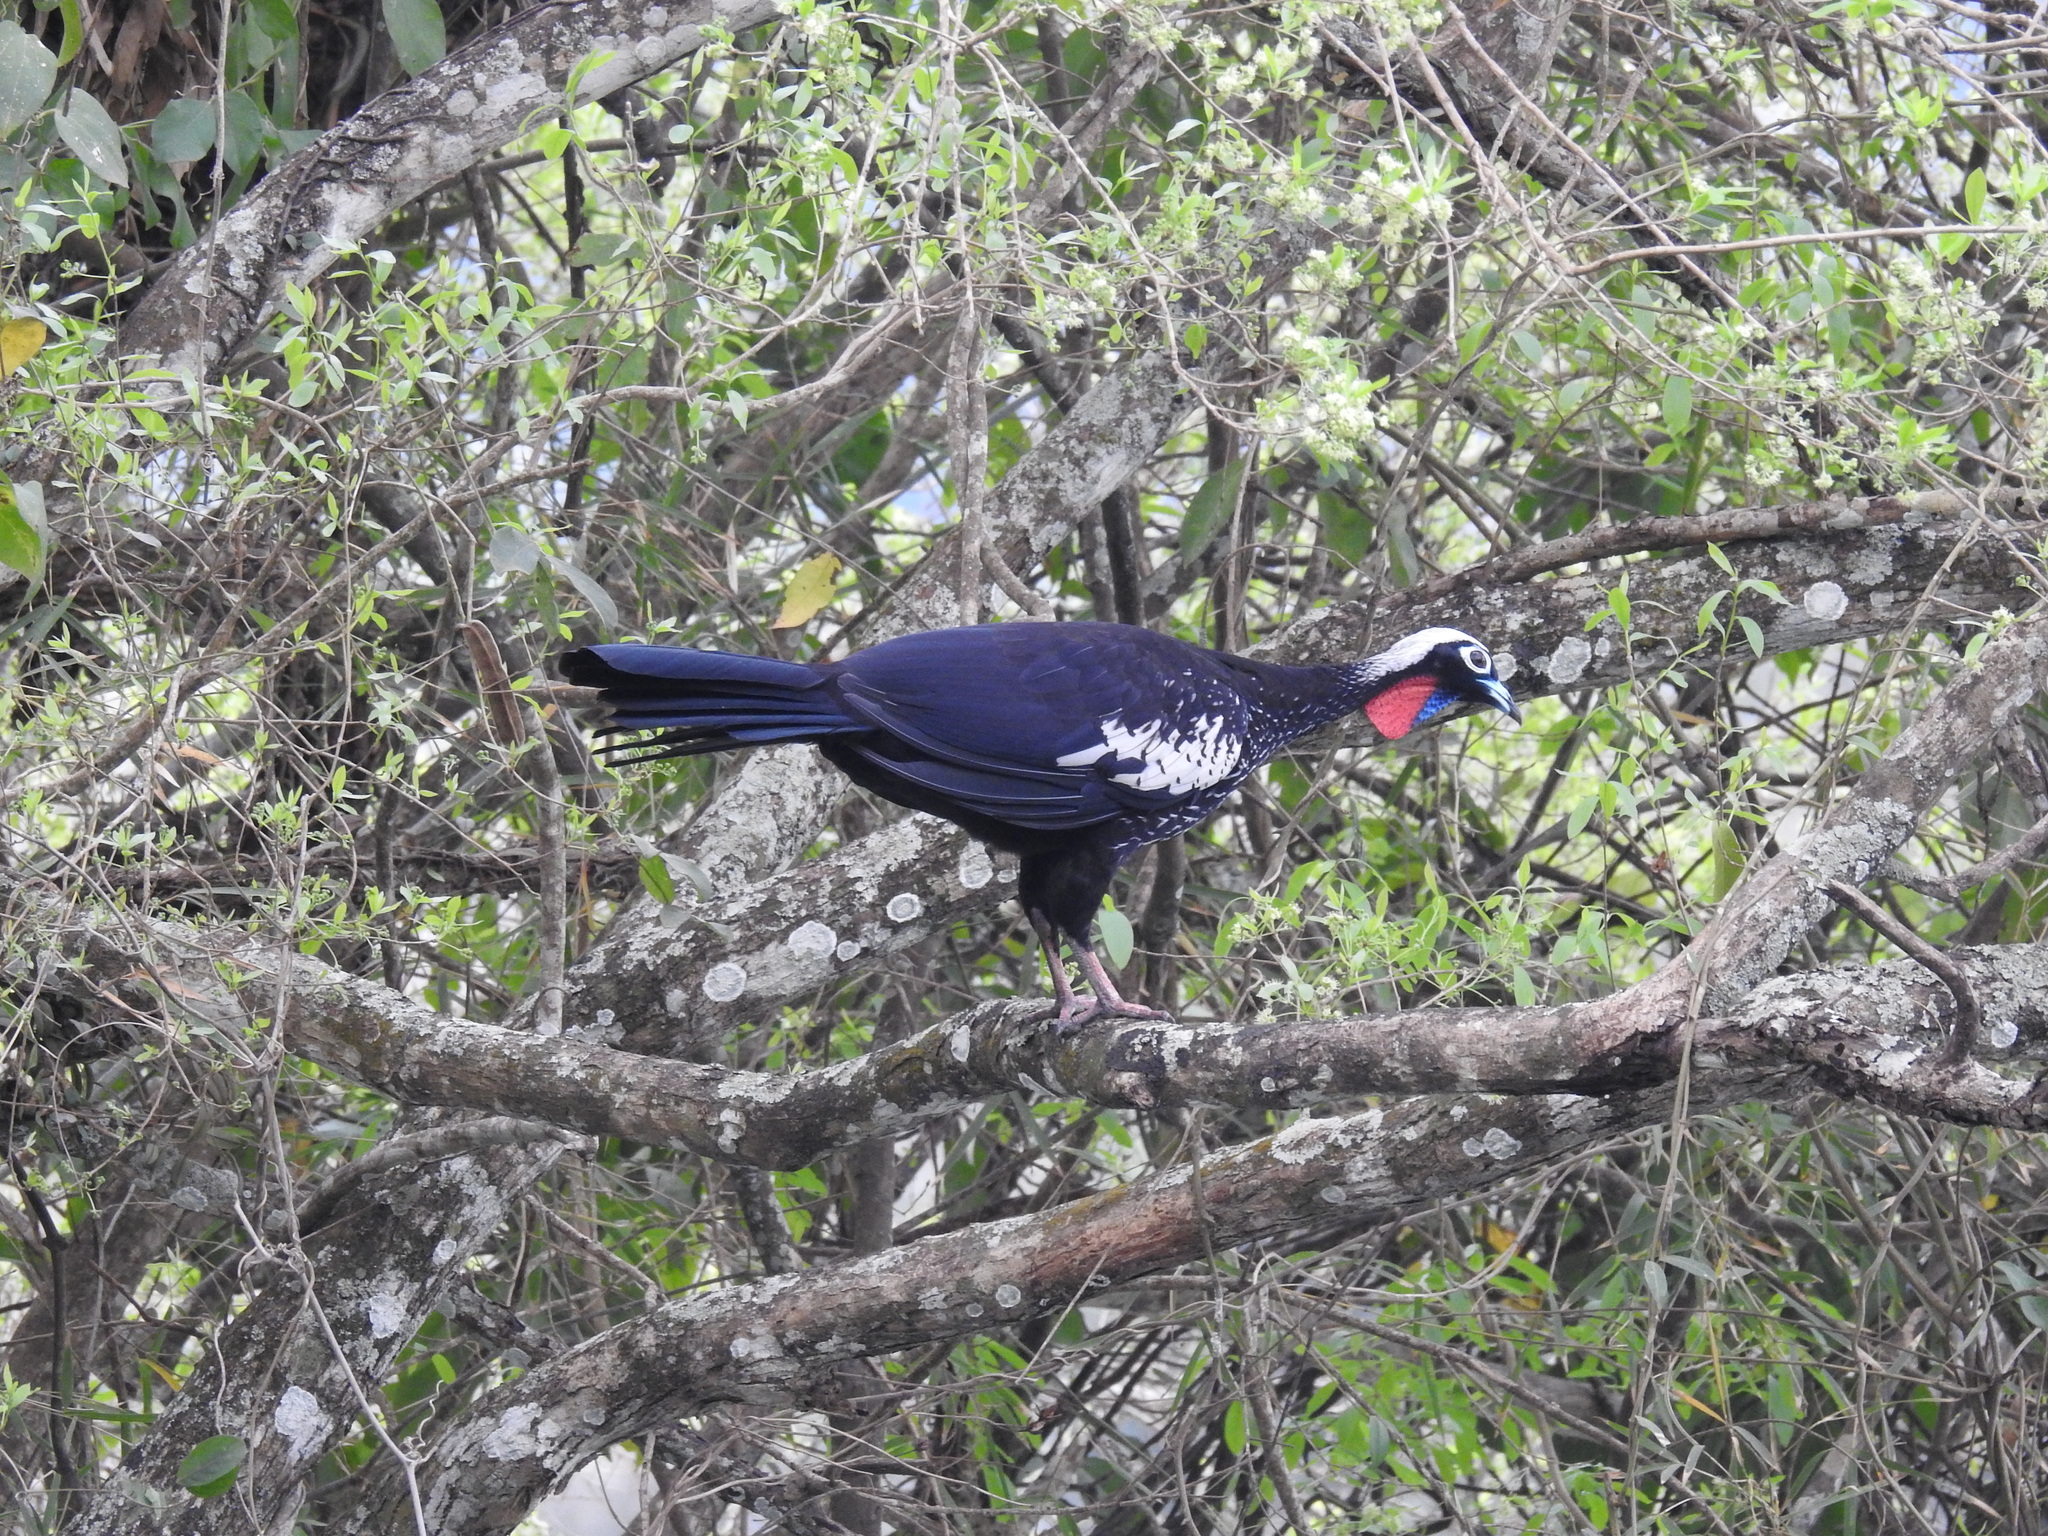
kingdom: Animalia
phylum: Chordata
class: Aves
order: Galliformes
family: Cracidae
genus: Pipile
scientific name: Pipile jacutinga
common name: Black-fronted piping-guan
